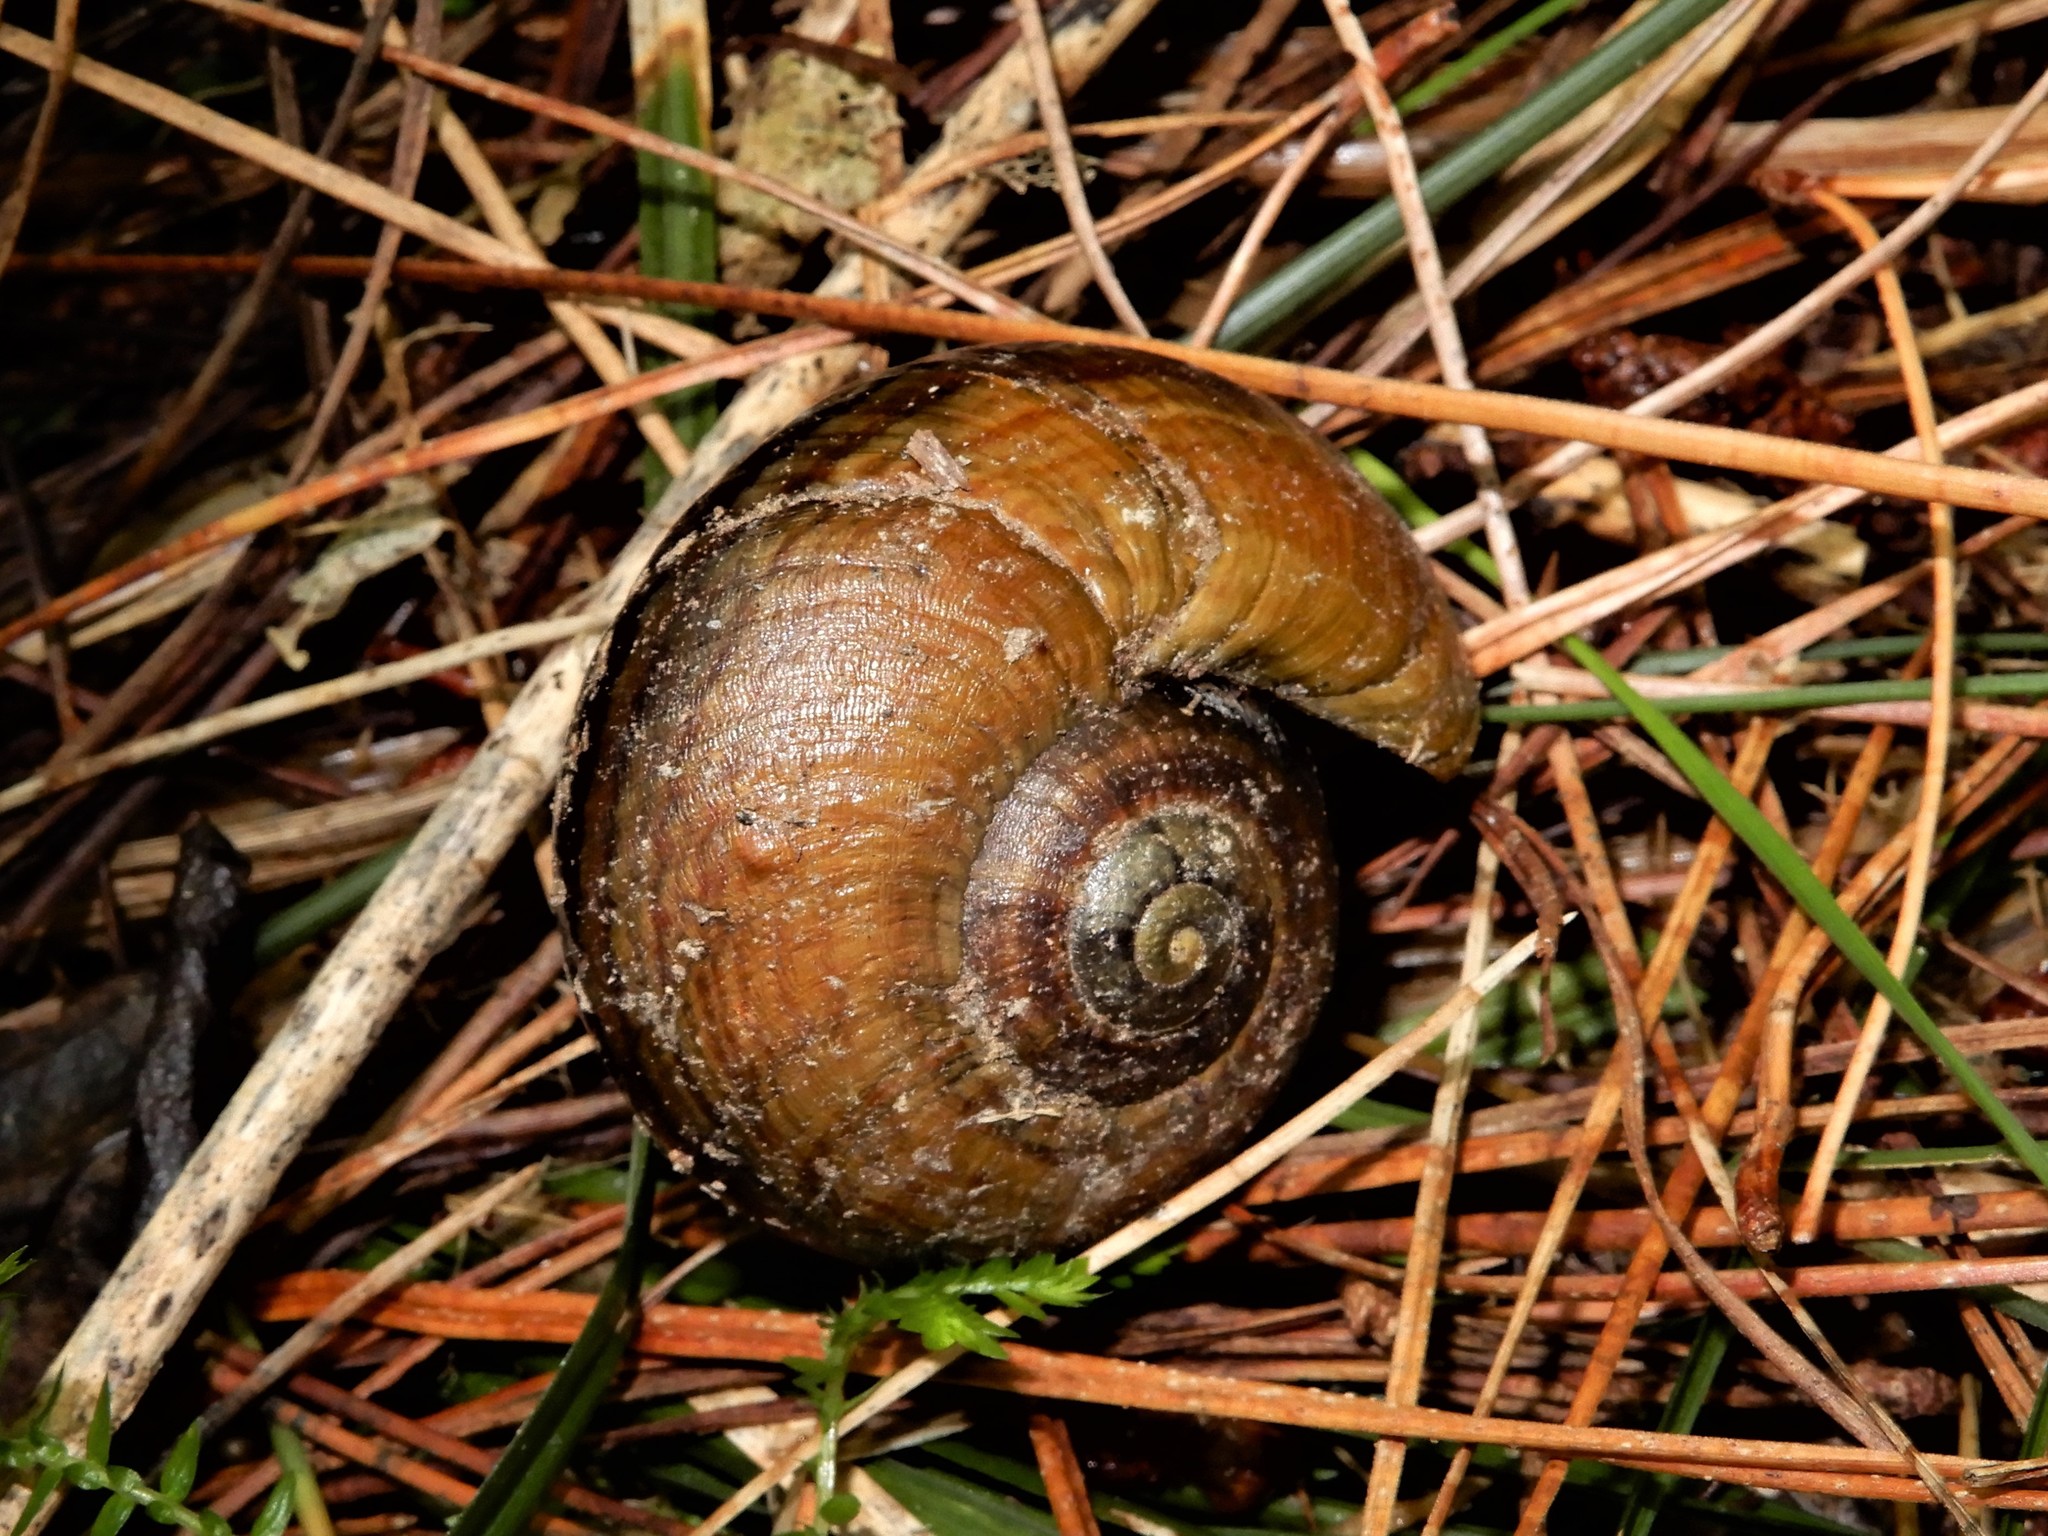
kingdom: Animalia
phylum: Mollusca
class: Gastropoda
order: Stylommatophora
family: Rhytididae
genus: Powelliphanta
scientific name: Powelliphanta traversi
